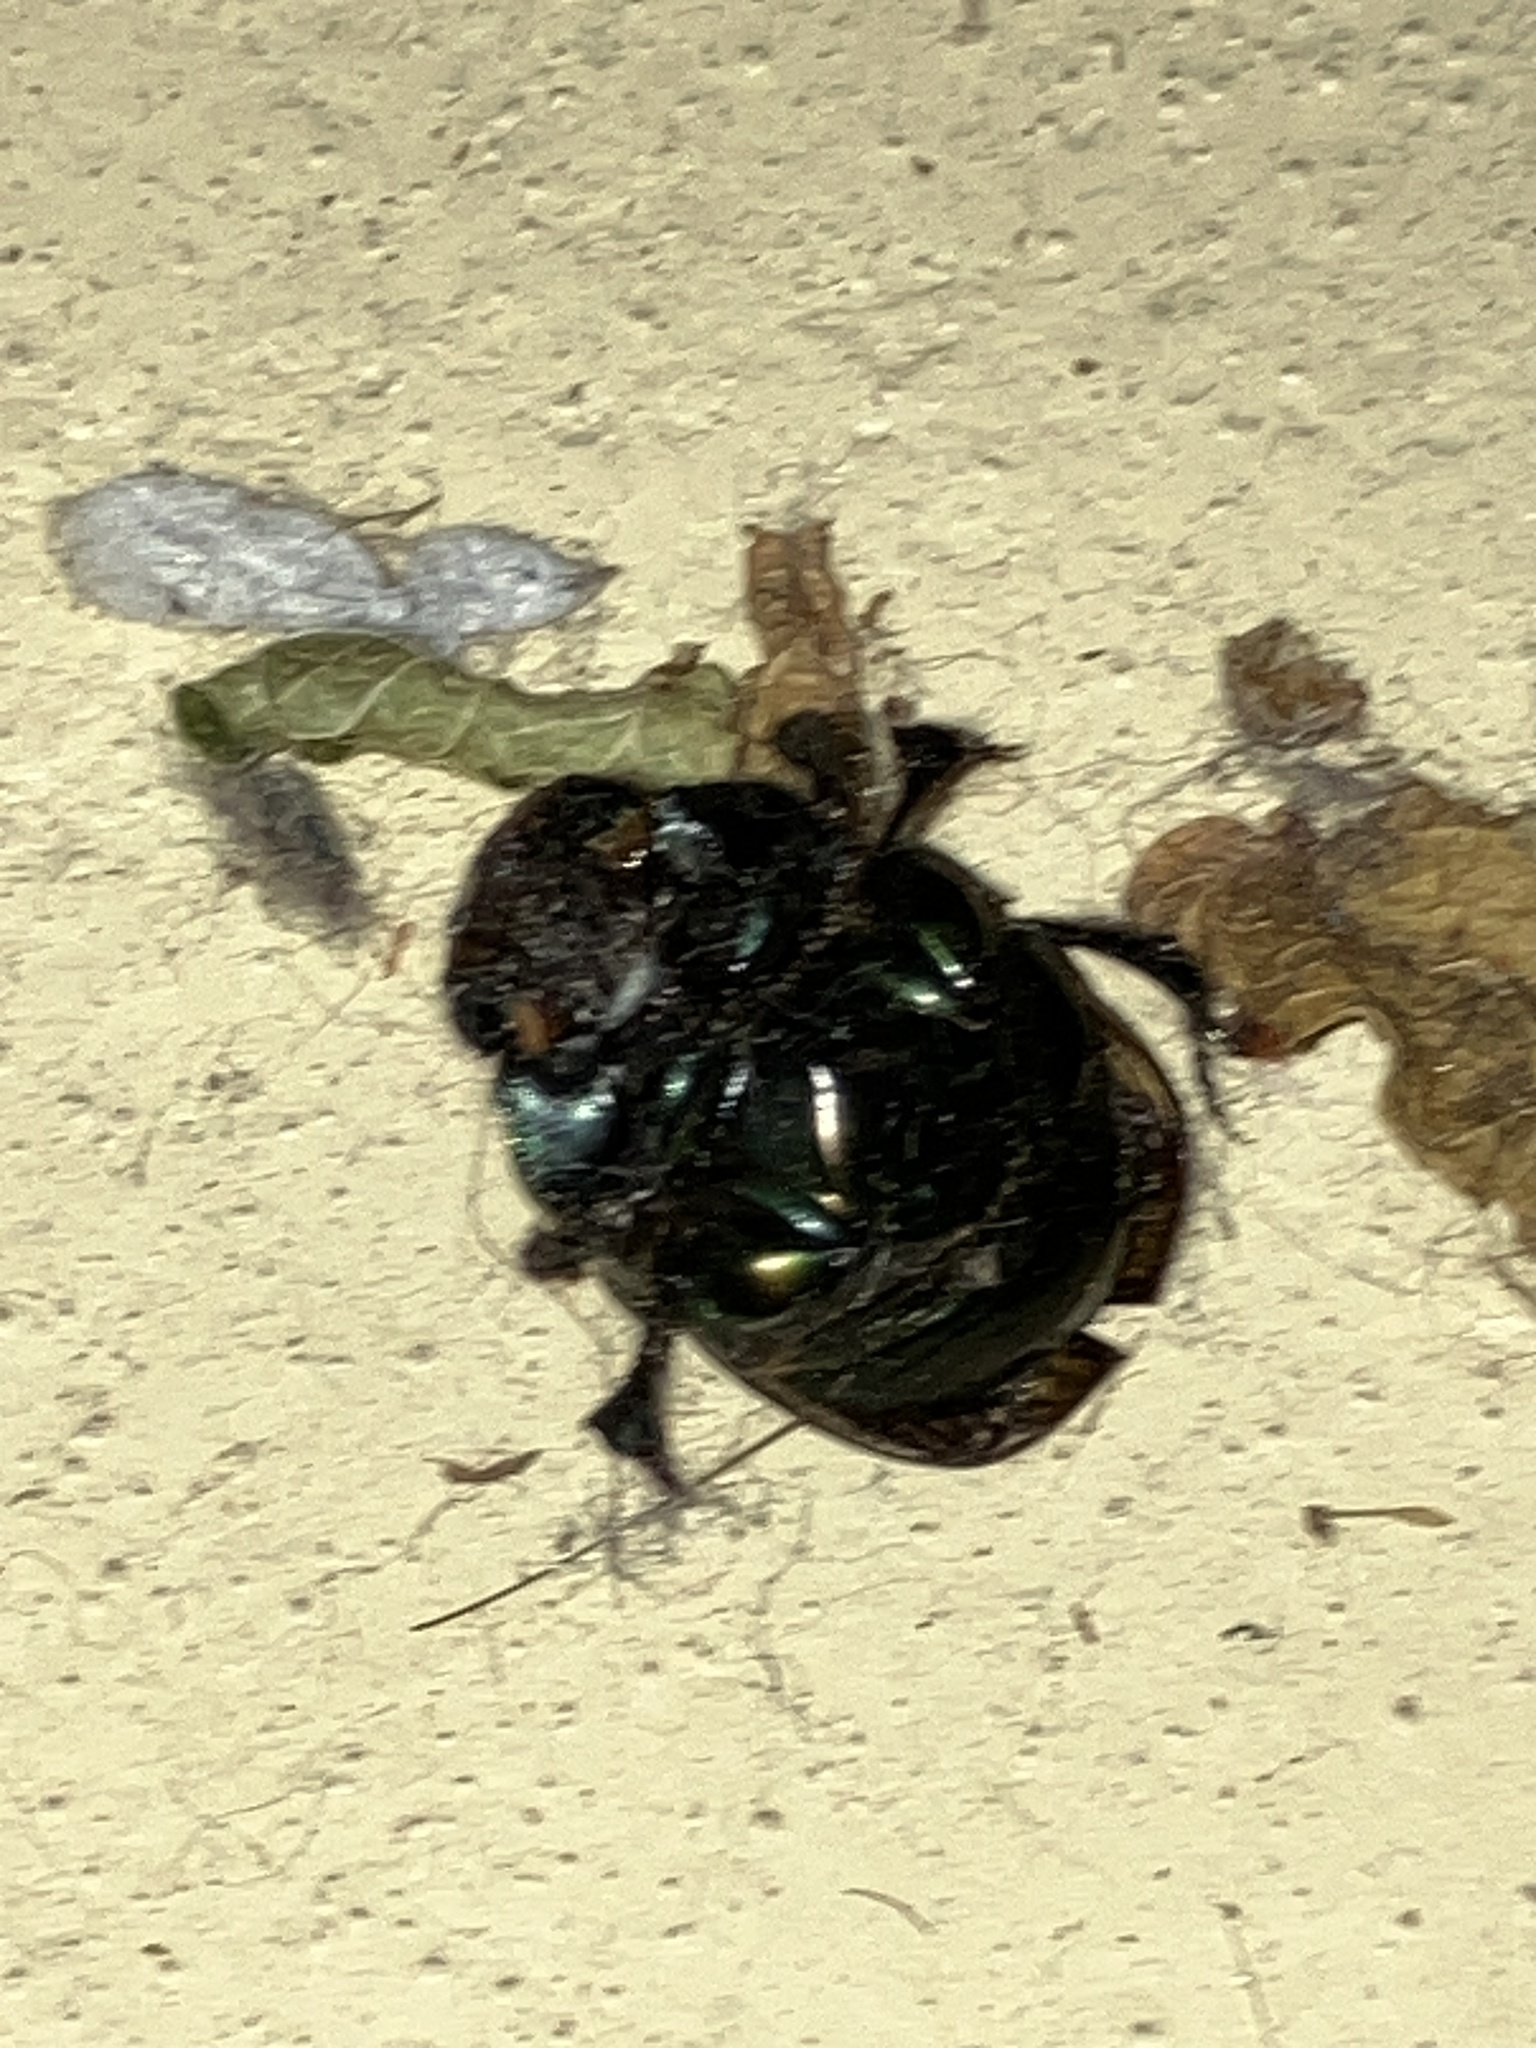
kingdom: Animalia
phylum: Arthropoda
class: Insecta
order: Coleoptera
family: Scarabaeidae
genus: Phanaeus
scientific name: Phanaeus vindex
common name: Rainbow scarab
